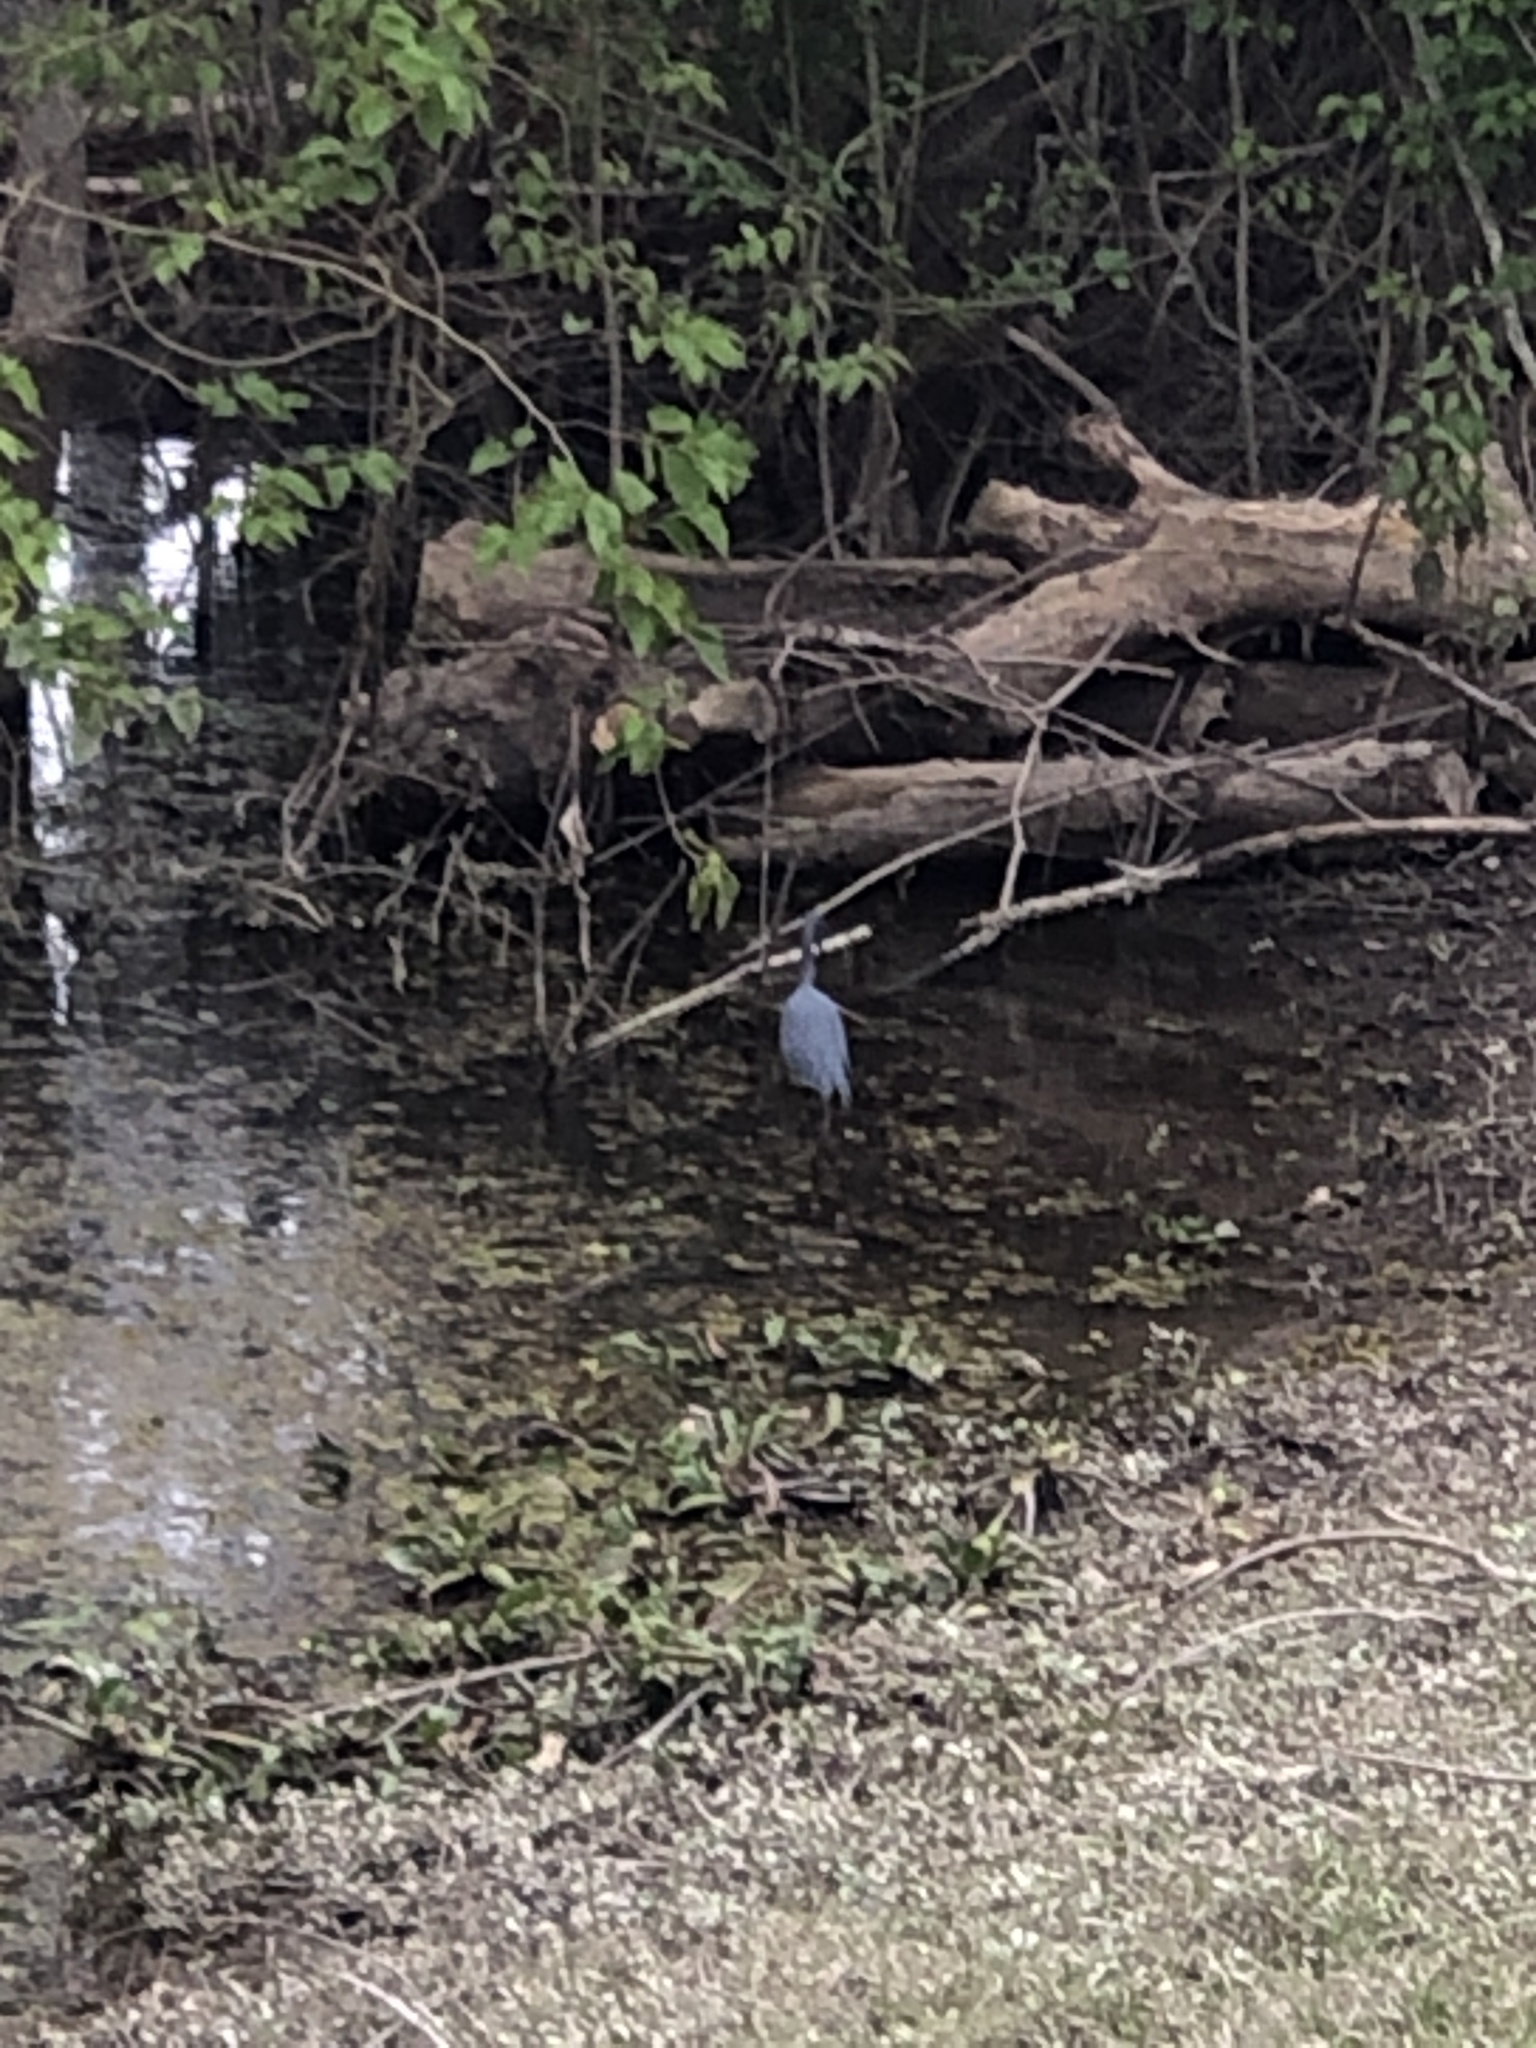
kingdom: Animalia
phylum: Chordata
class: Aves
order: Pelecaniformes
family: Ardeidae
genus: Egretta
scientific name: Egretta tricolor
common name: Tricolored heron
